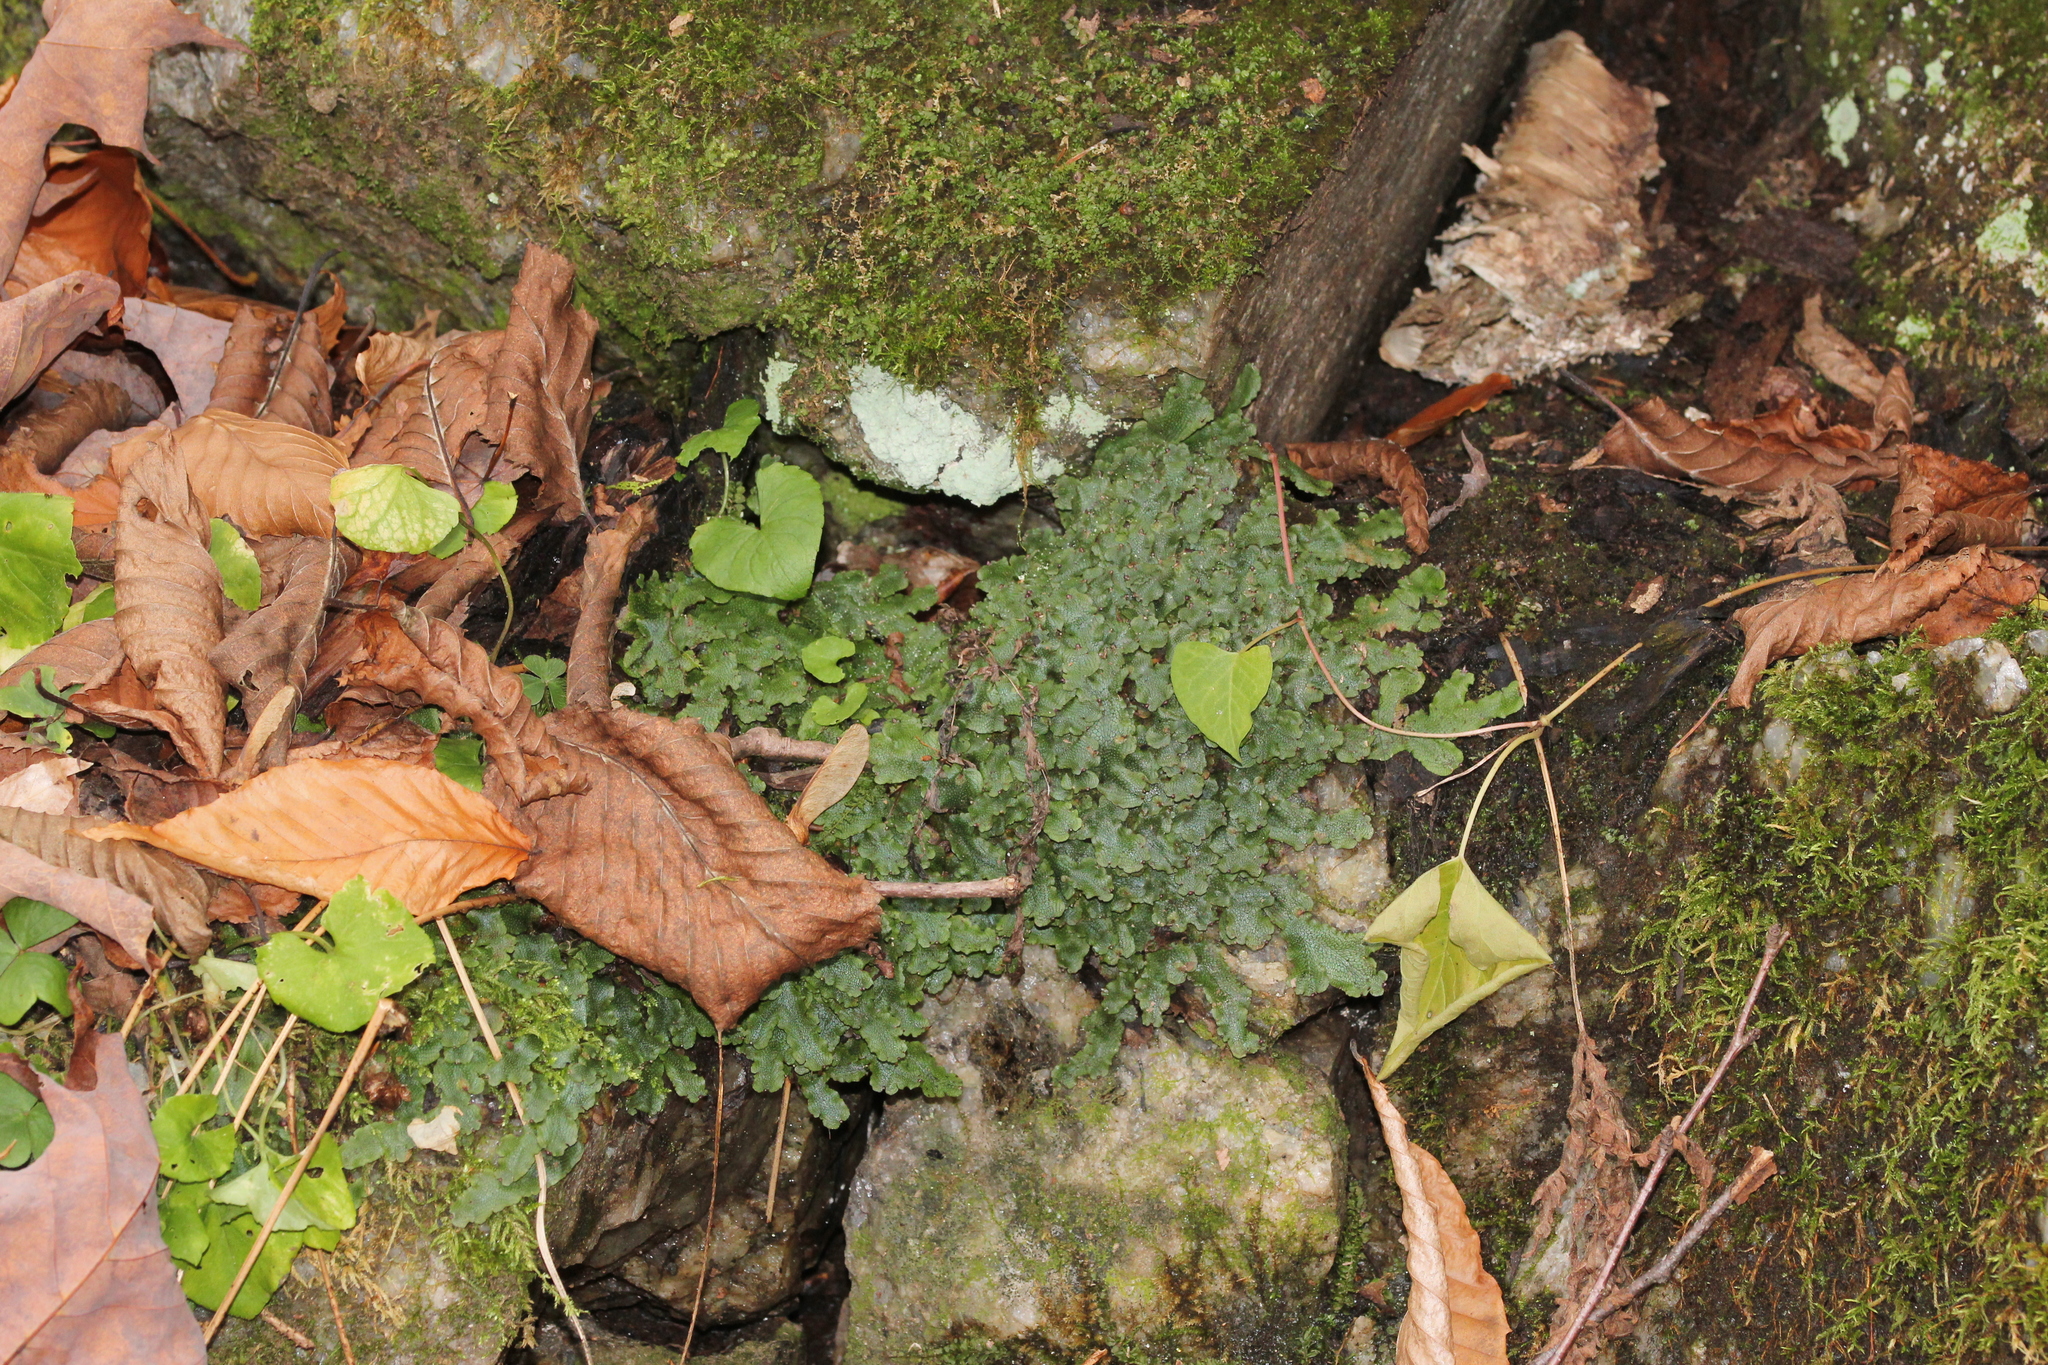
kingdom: Plantae
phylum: Marchantiophyta
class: Marchantiopsida
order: Marchantiales
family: Conocephalaceae
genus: Conocephalum
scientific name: Conocephalum salebrosum
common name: Cat-tongue liverwort
